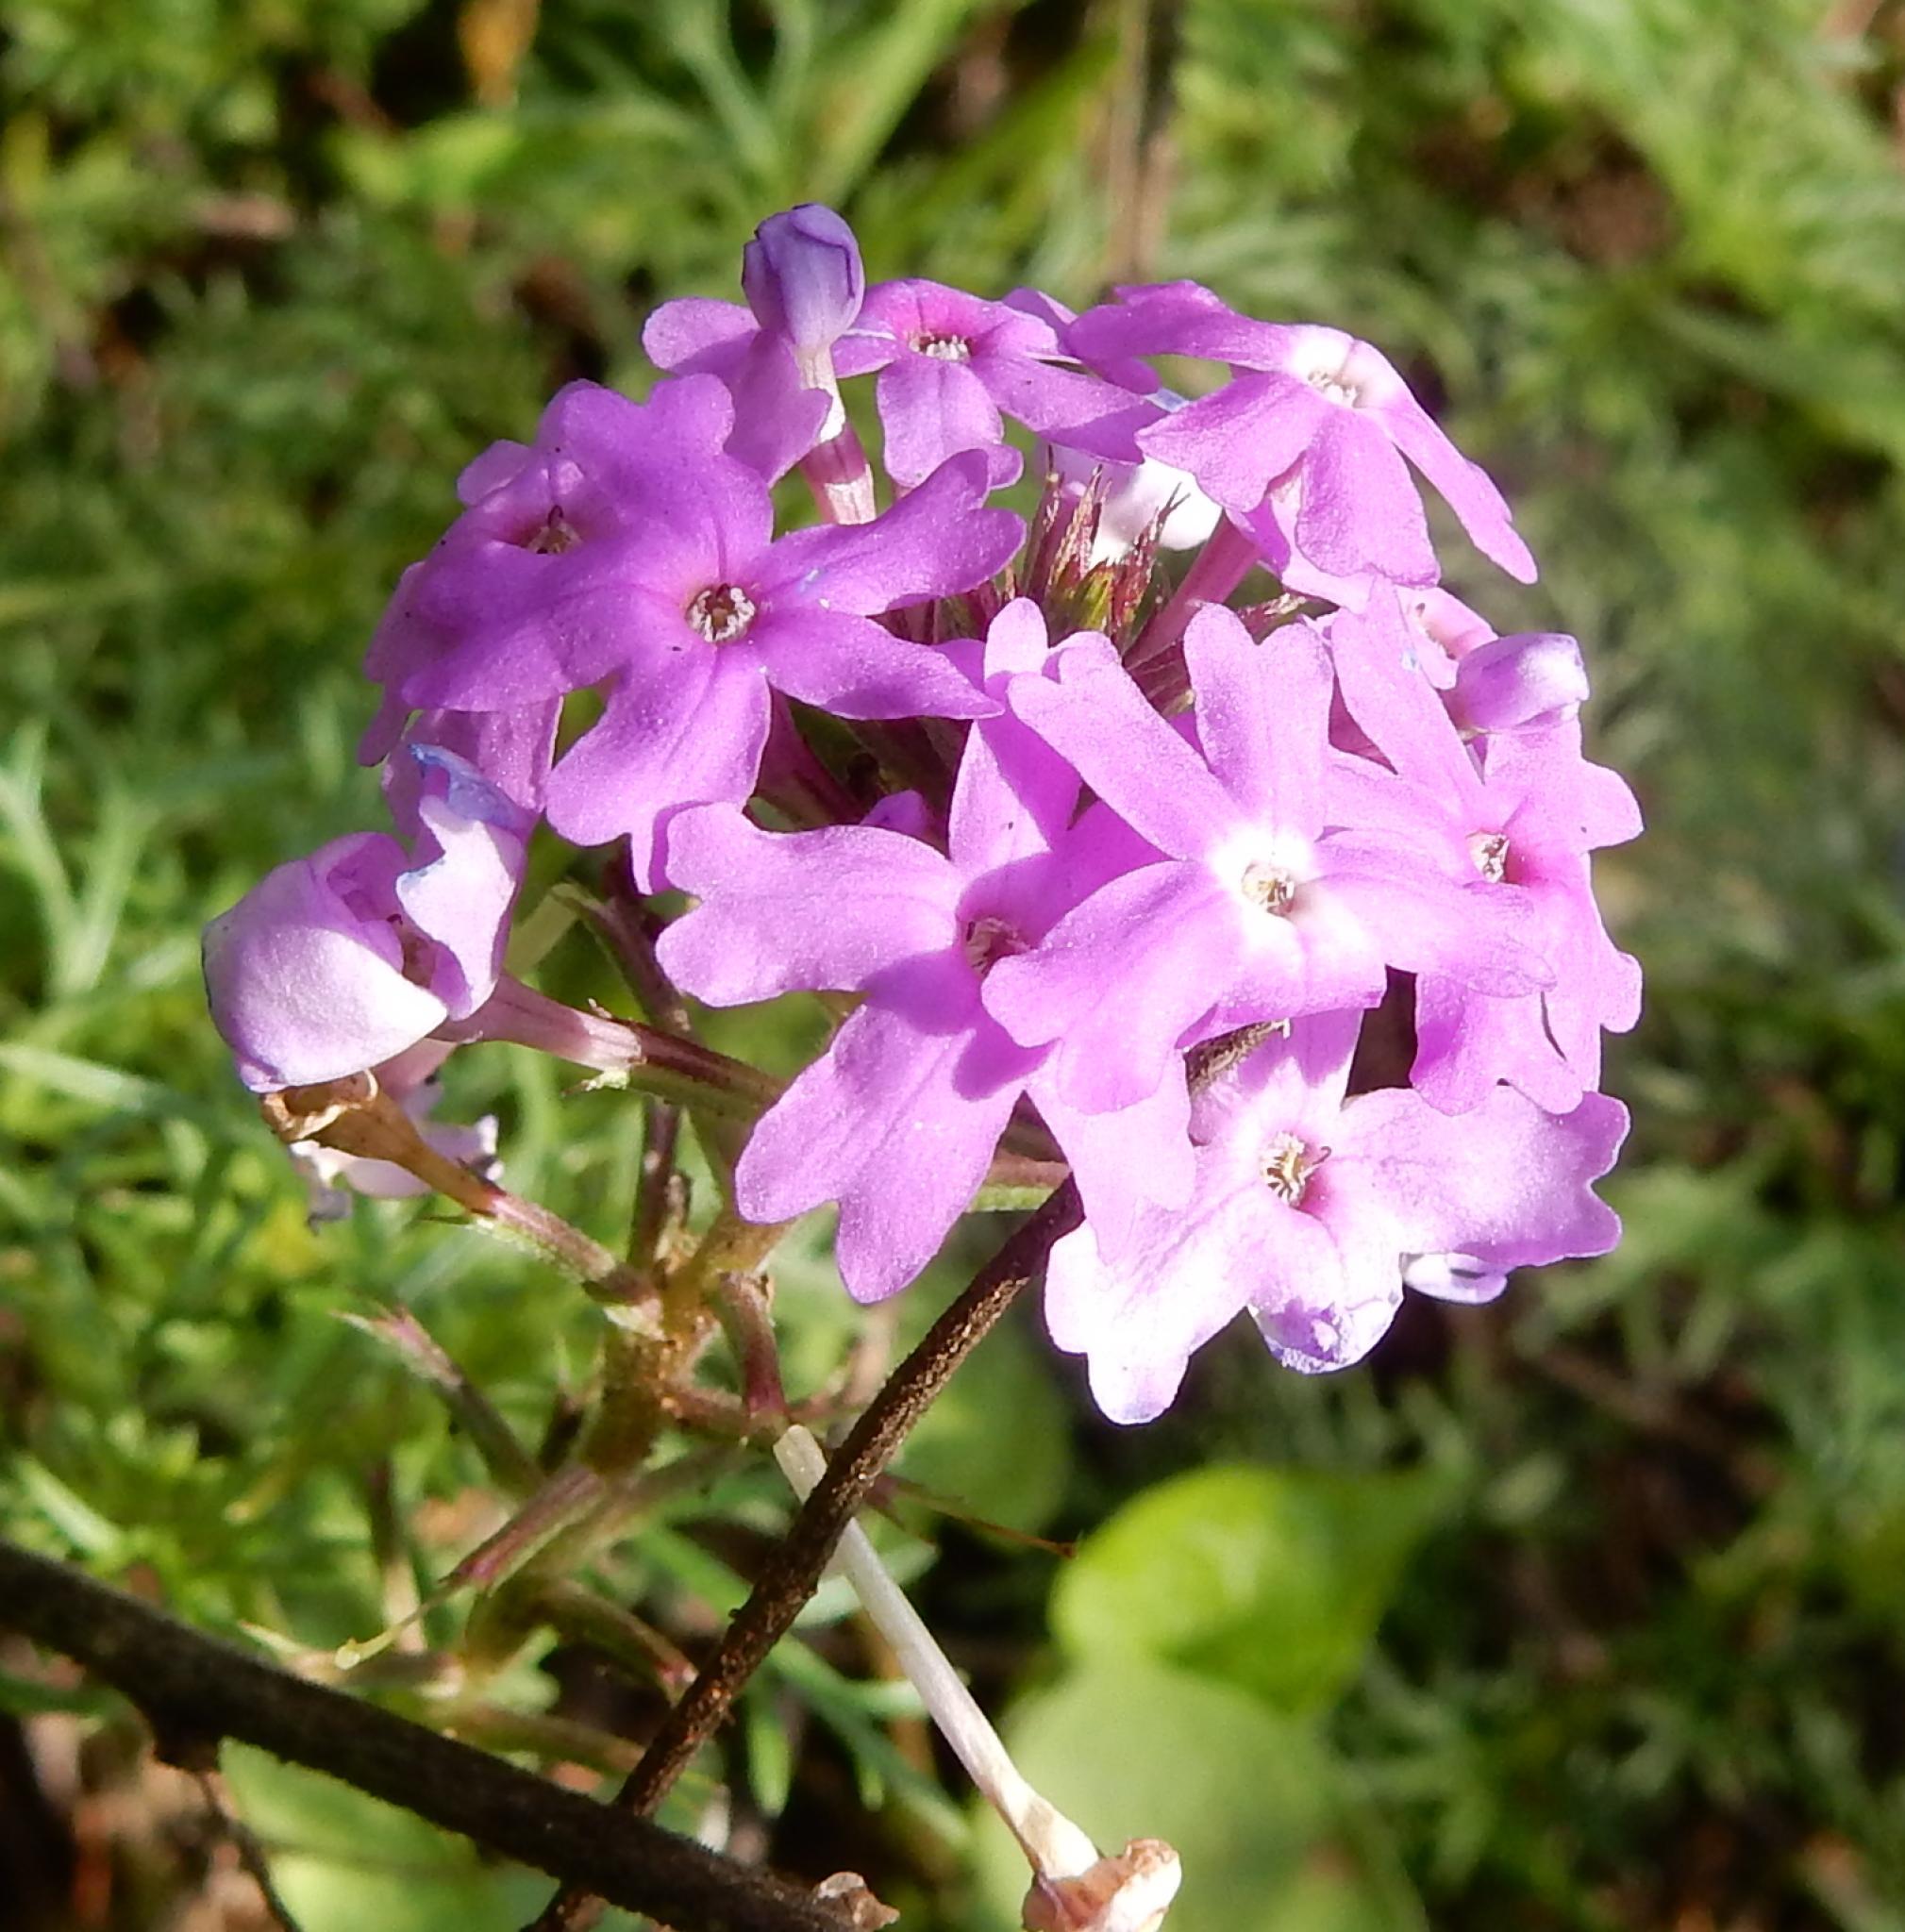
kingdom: Plantae
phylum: Tracheophyta
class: Magnoliopsida
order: Lamiales
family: Verbenaceae
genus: Verbena
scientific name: Verbena aristigera
